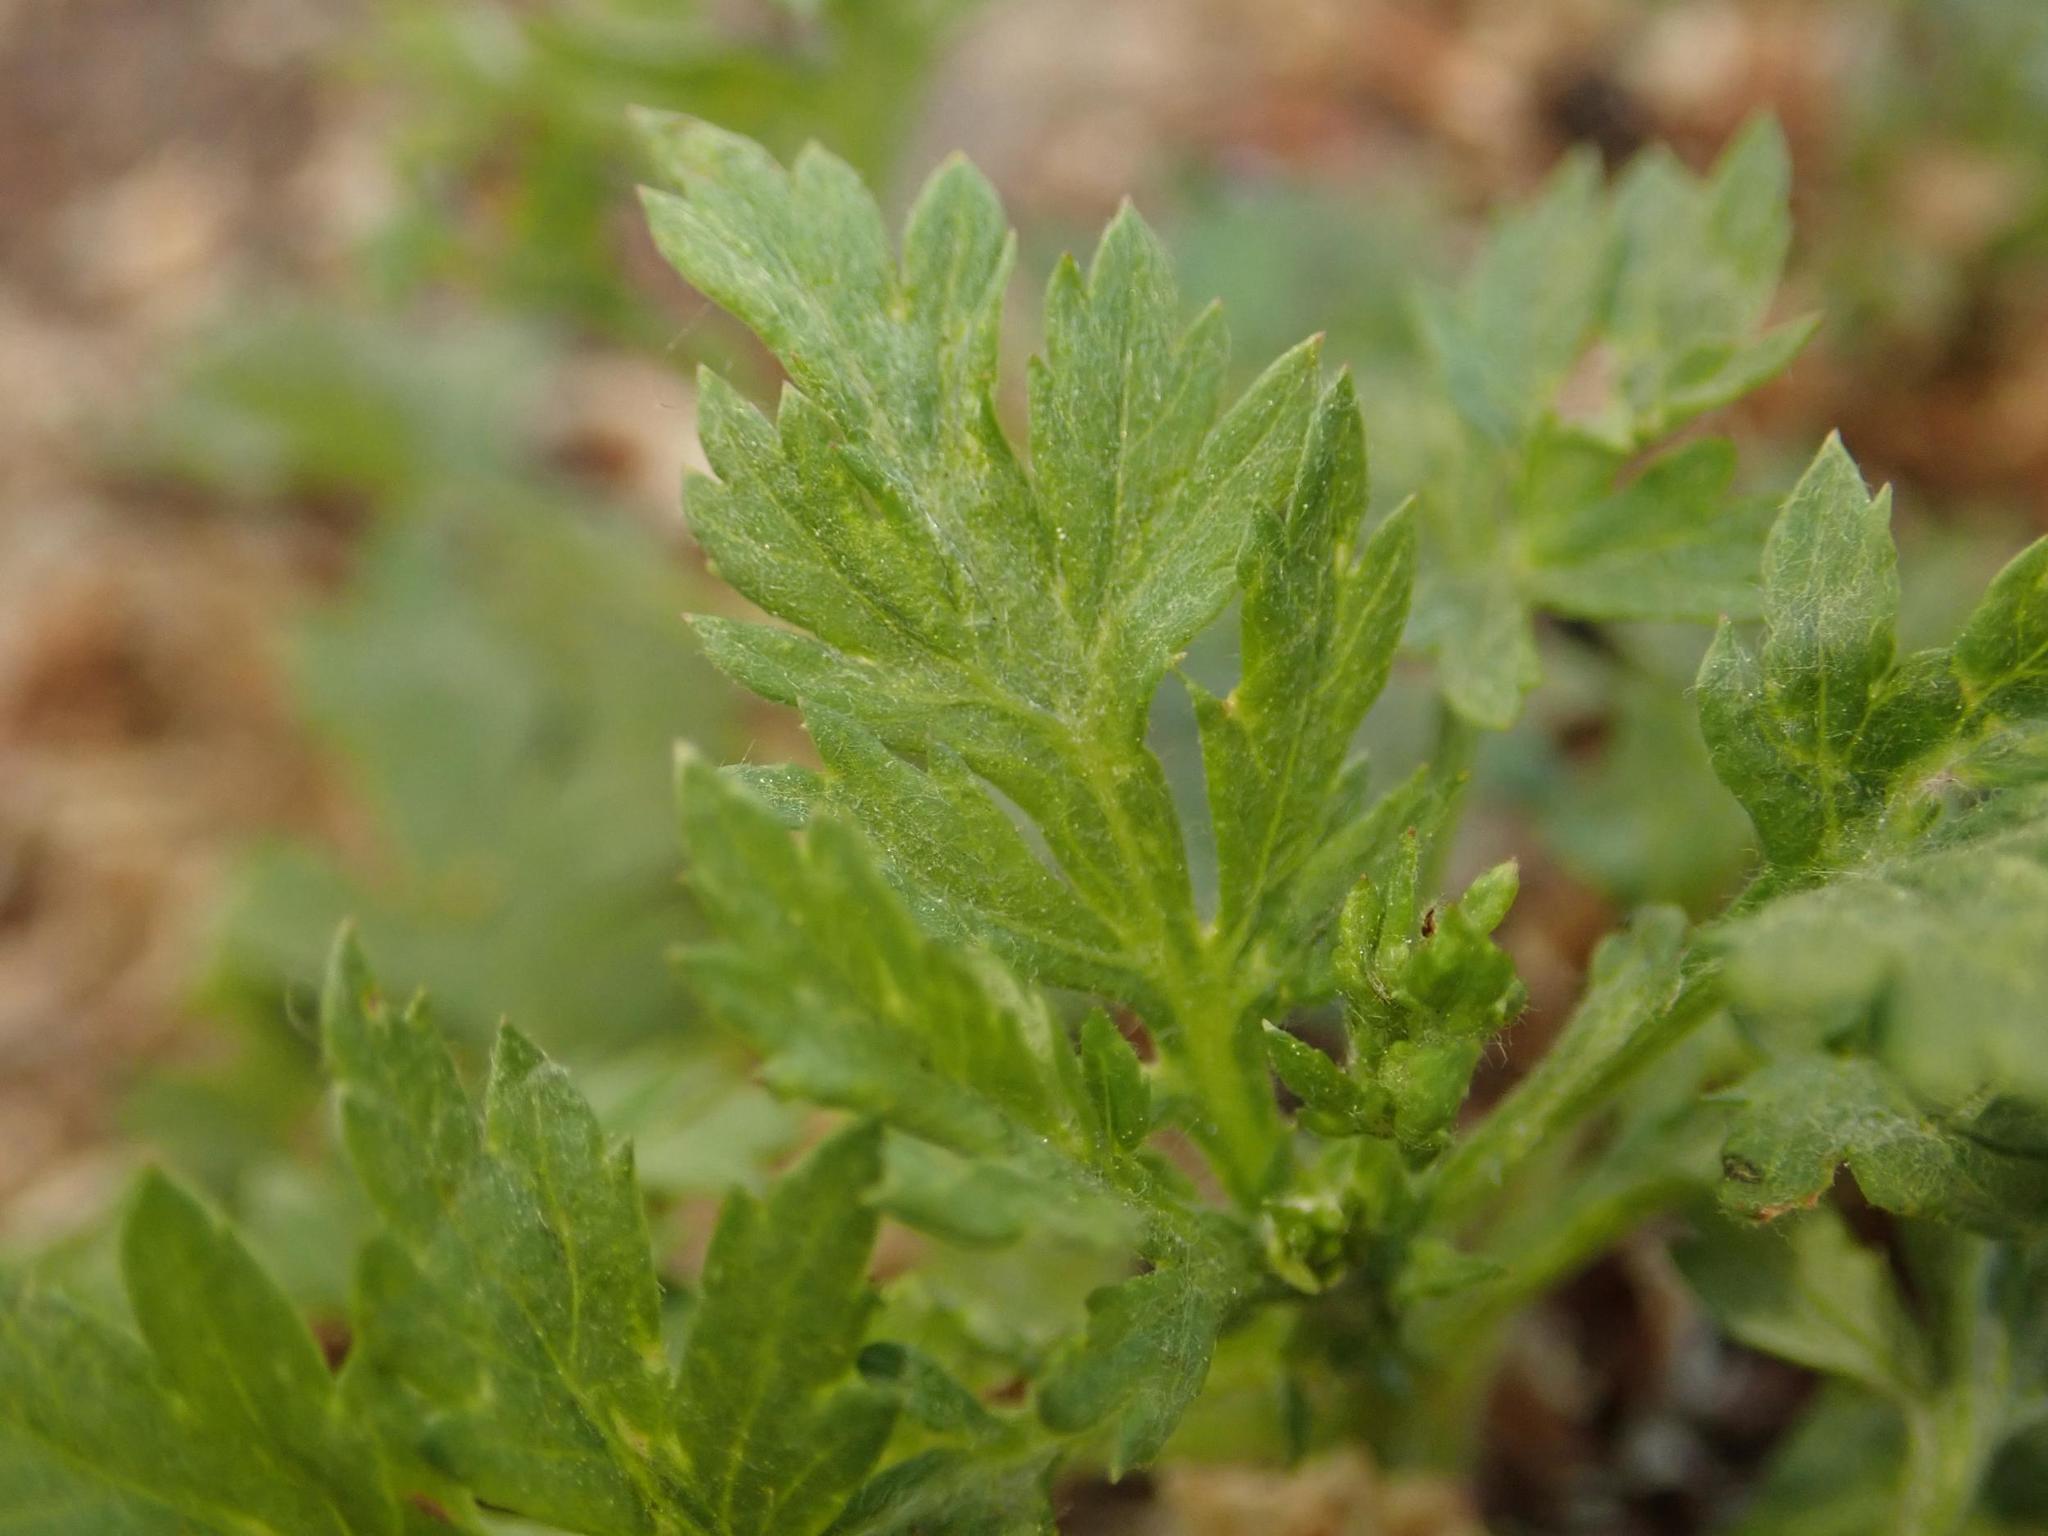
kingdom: Plantae
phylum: Tracheophyta
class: Magnoliopsida
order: Asterales
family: Asteraceae
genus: Artemisia
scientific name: Artemisia vulgaris
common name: Mugwort
